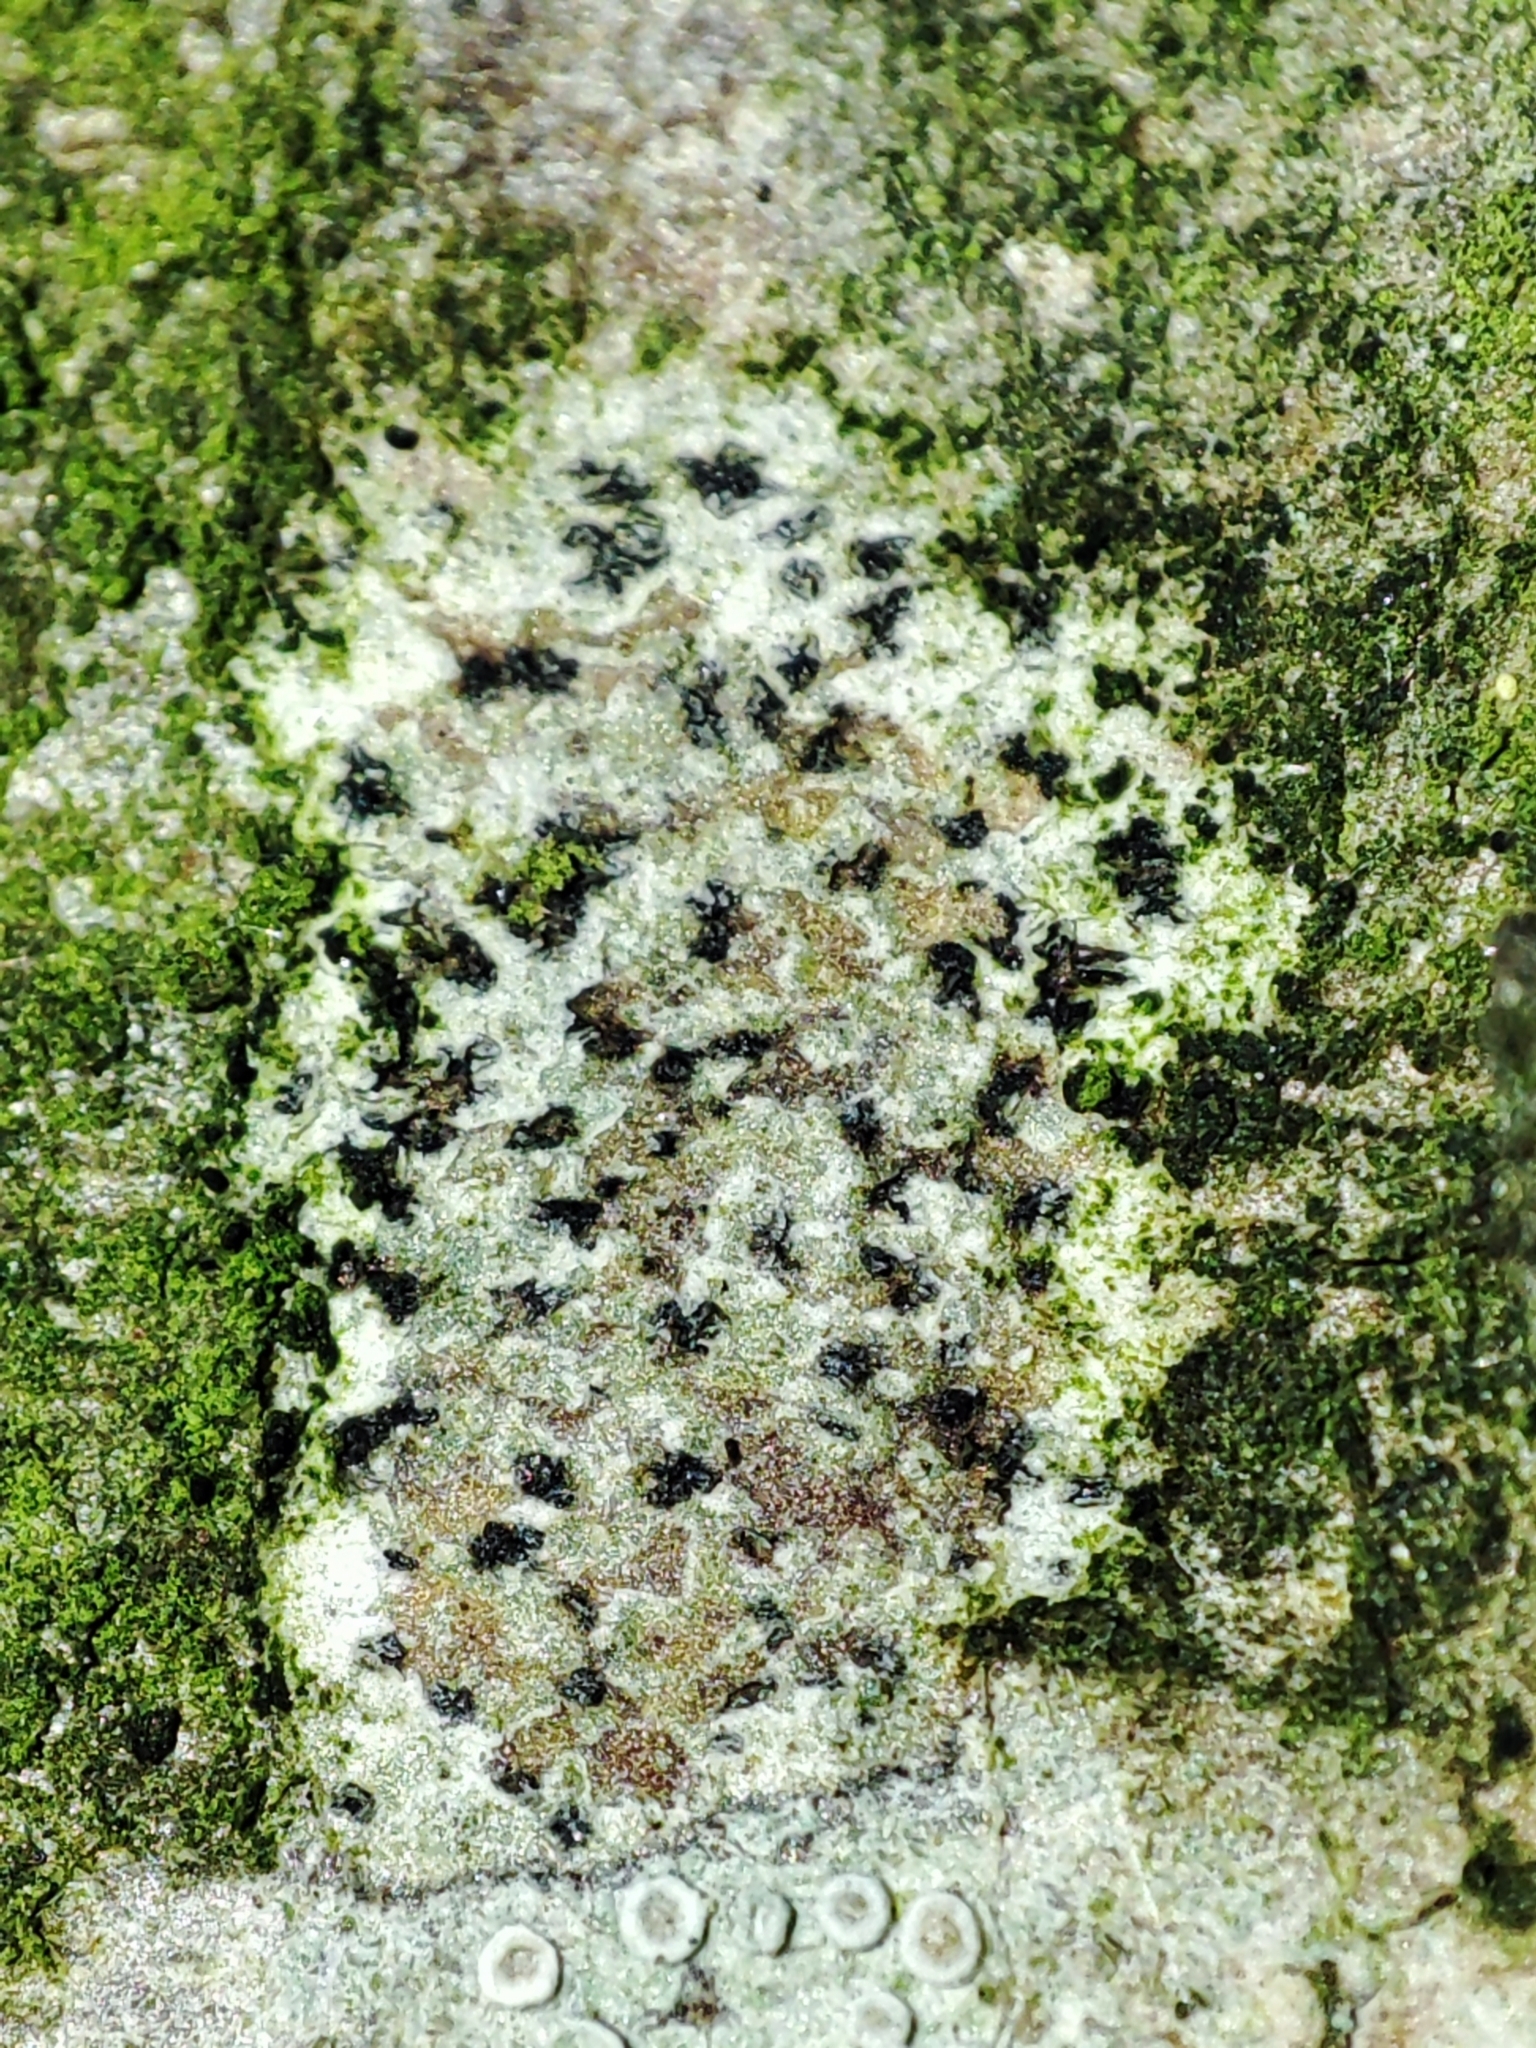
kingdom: Fungi
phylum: Ascomycota
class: Arthoniomycetes
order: Arthoniales
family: Arthoniaceae
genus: Arthonia
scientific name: Arthonia radiata
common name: Asterisk lichen
